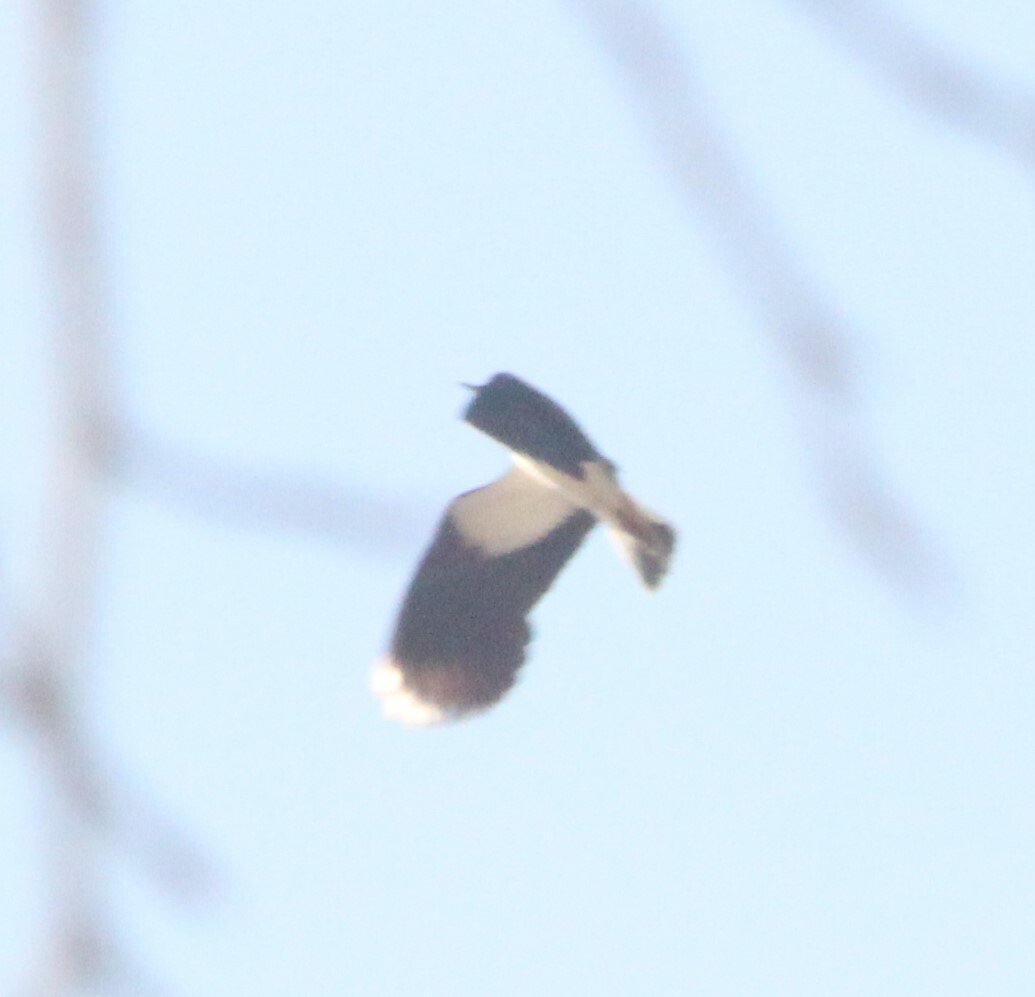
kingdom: Animalia
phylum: Chordata
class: Aves
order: Charadriiformes
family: Charadriidae
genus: Vanellus
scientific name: Vanellus vanellus
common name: Northern lapwing
